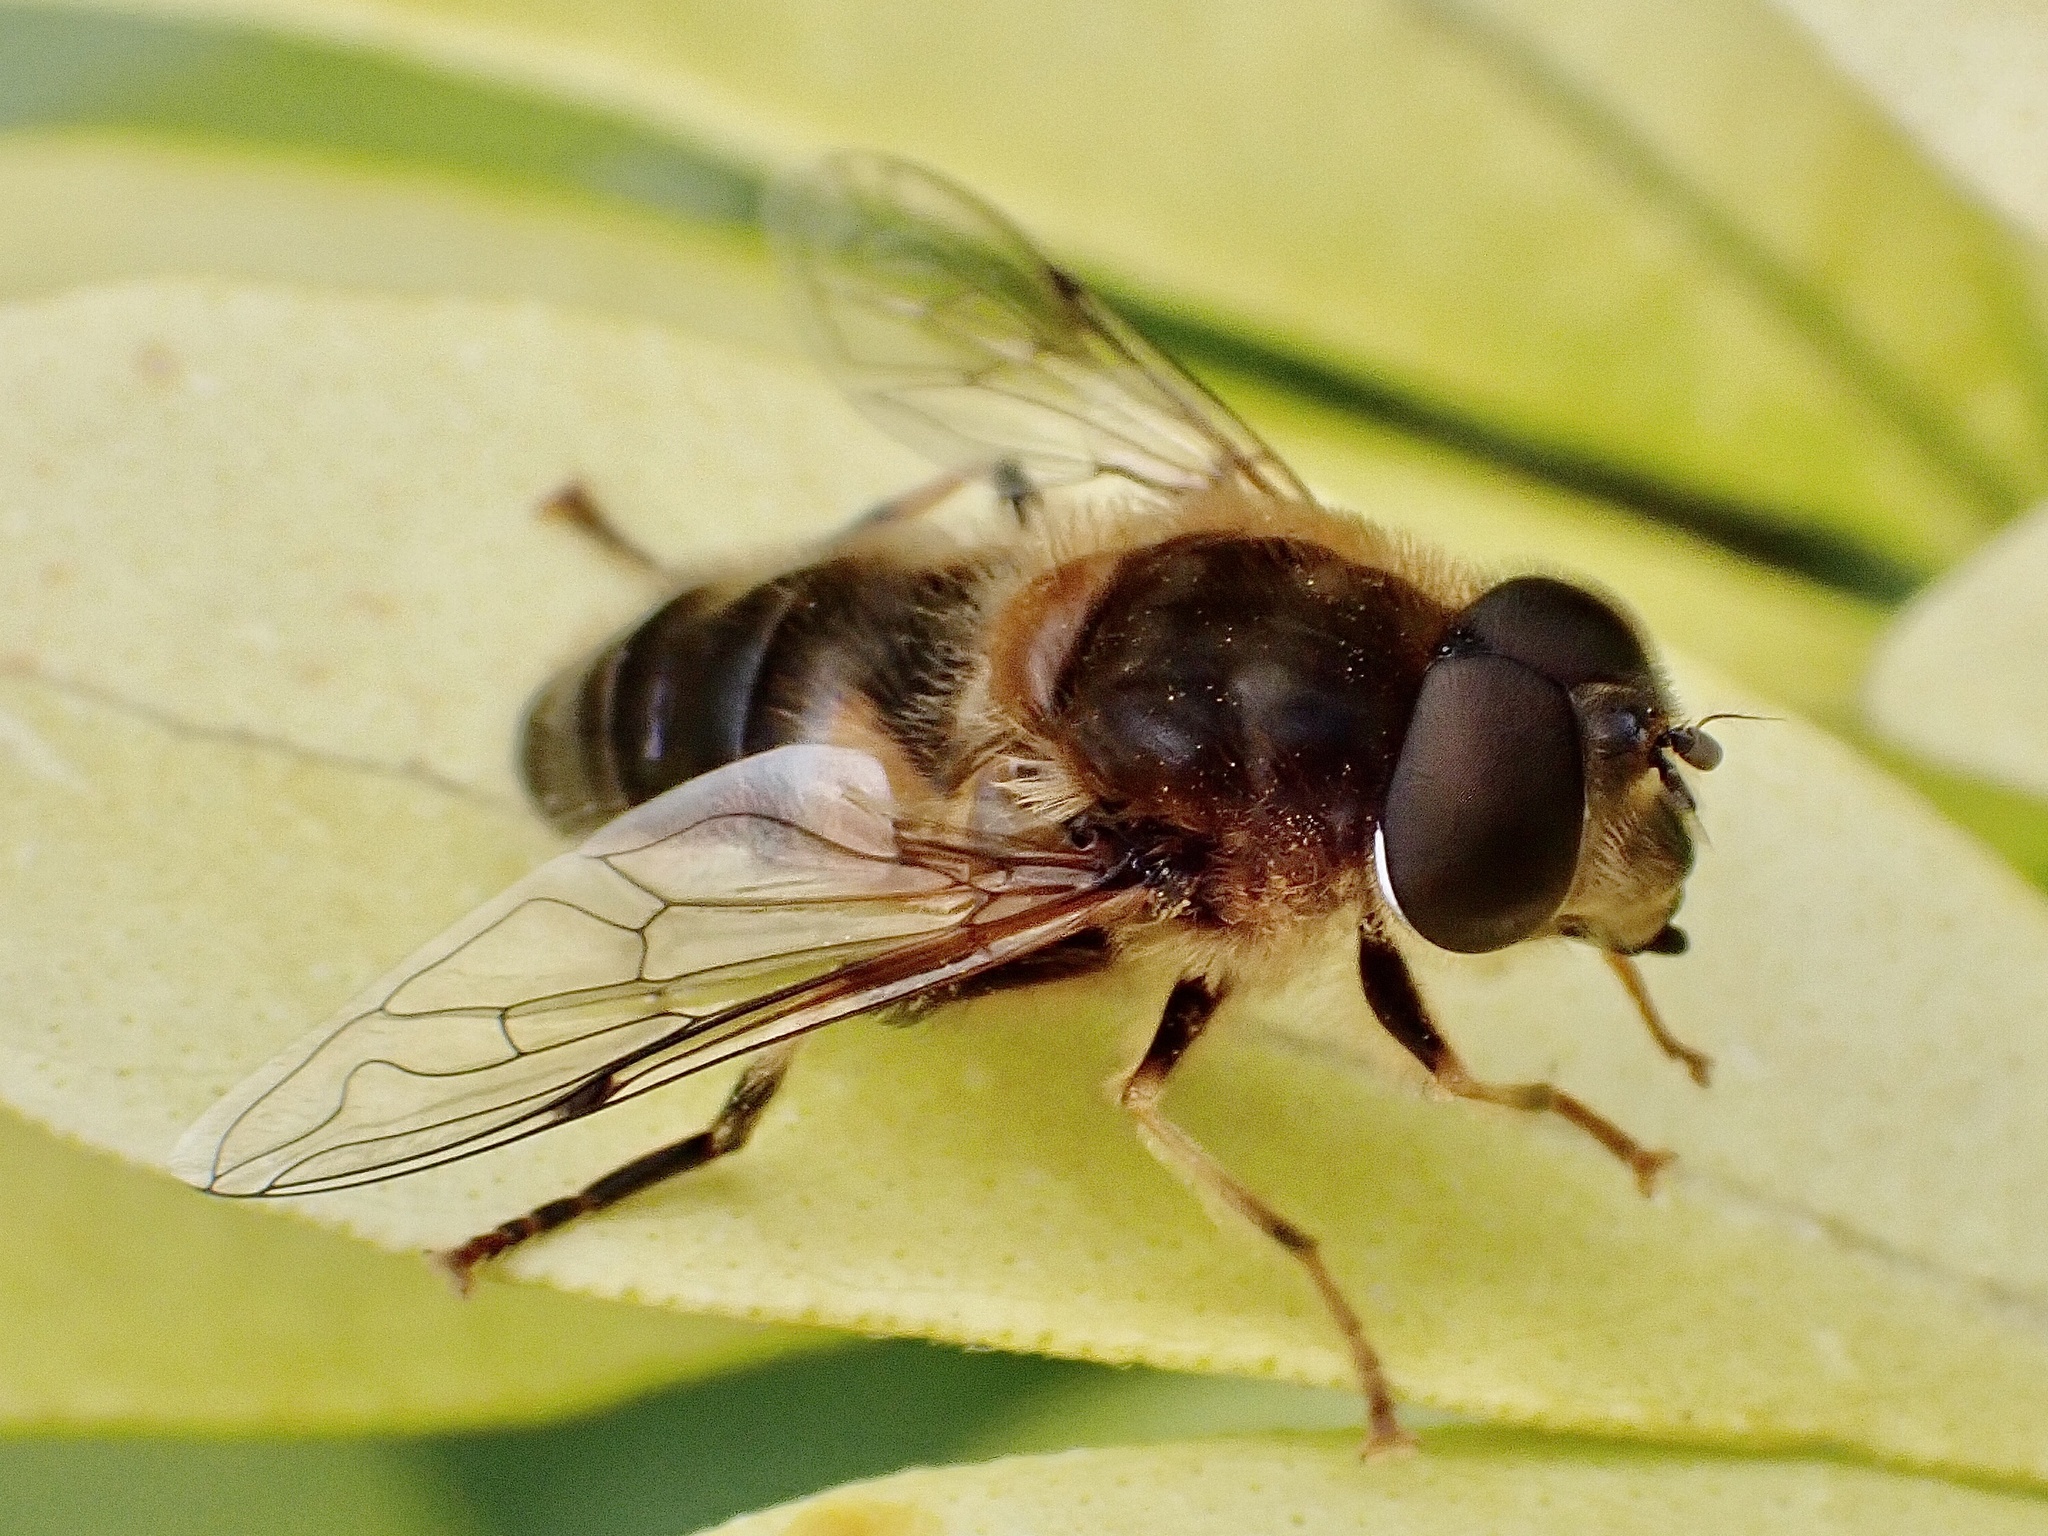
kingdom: Animalia
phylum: Arthropoda
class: Insecta
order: Diptera
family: Syrphidae
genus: Eristalis
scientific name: Eristalis pertinax
